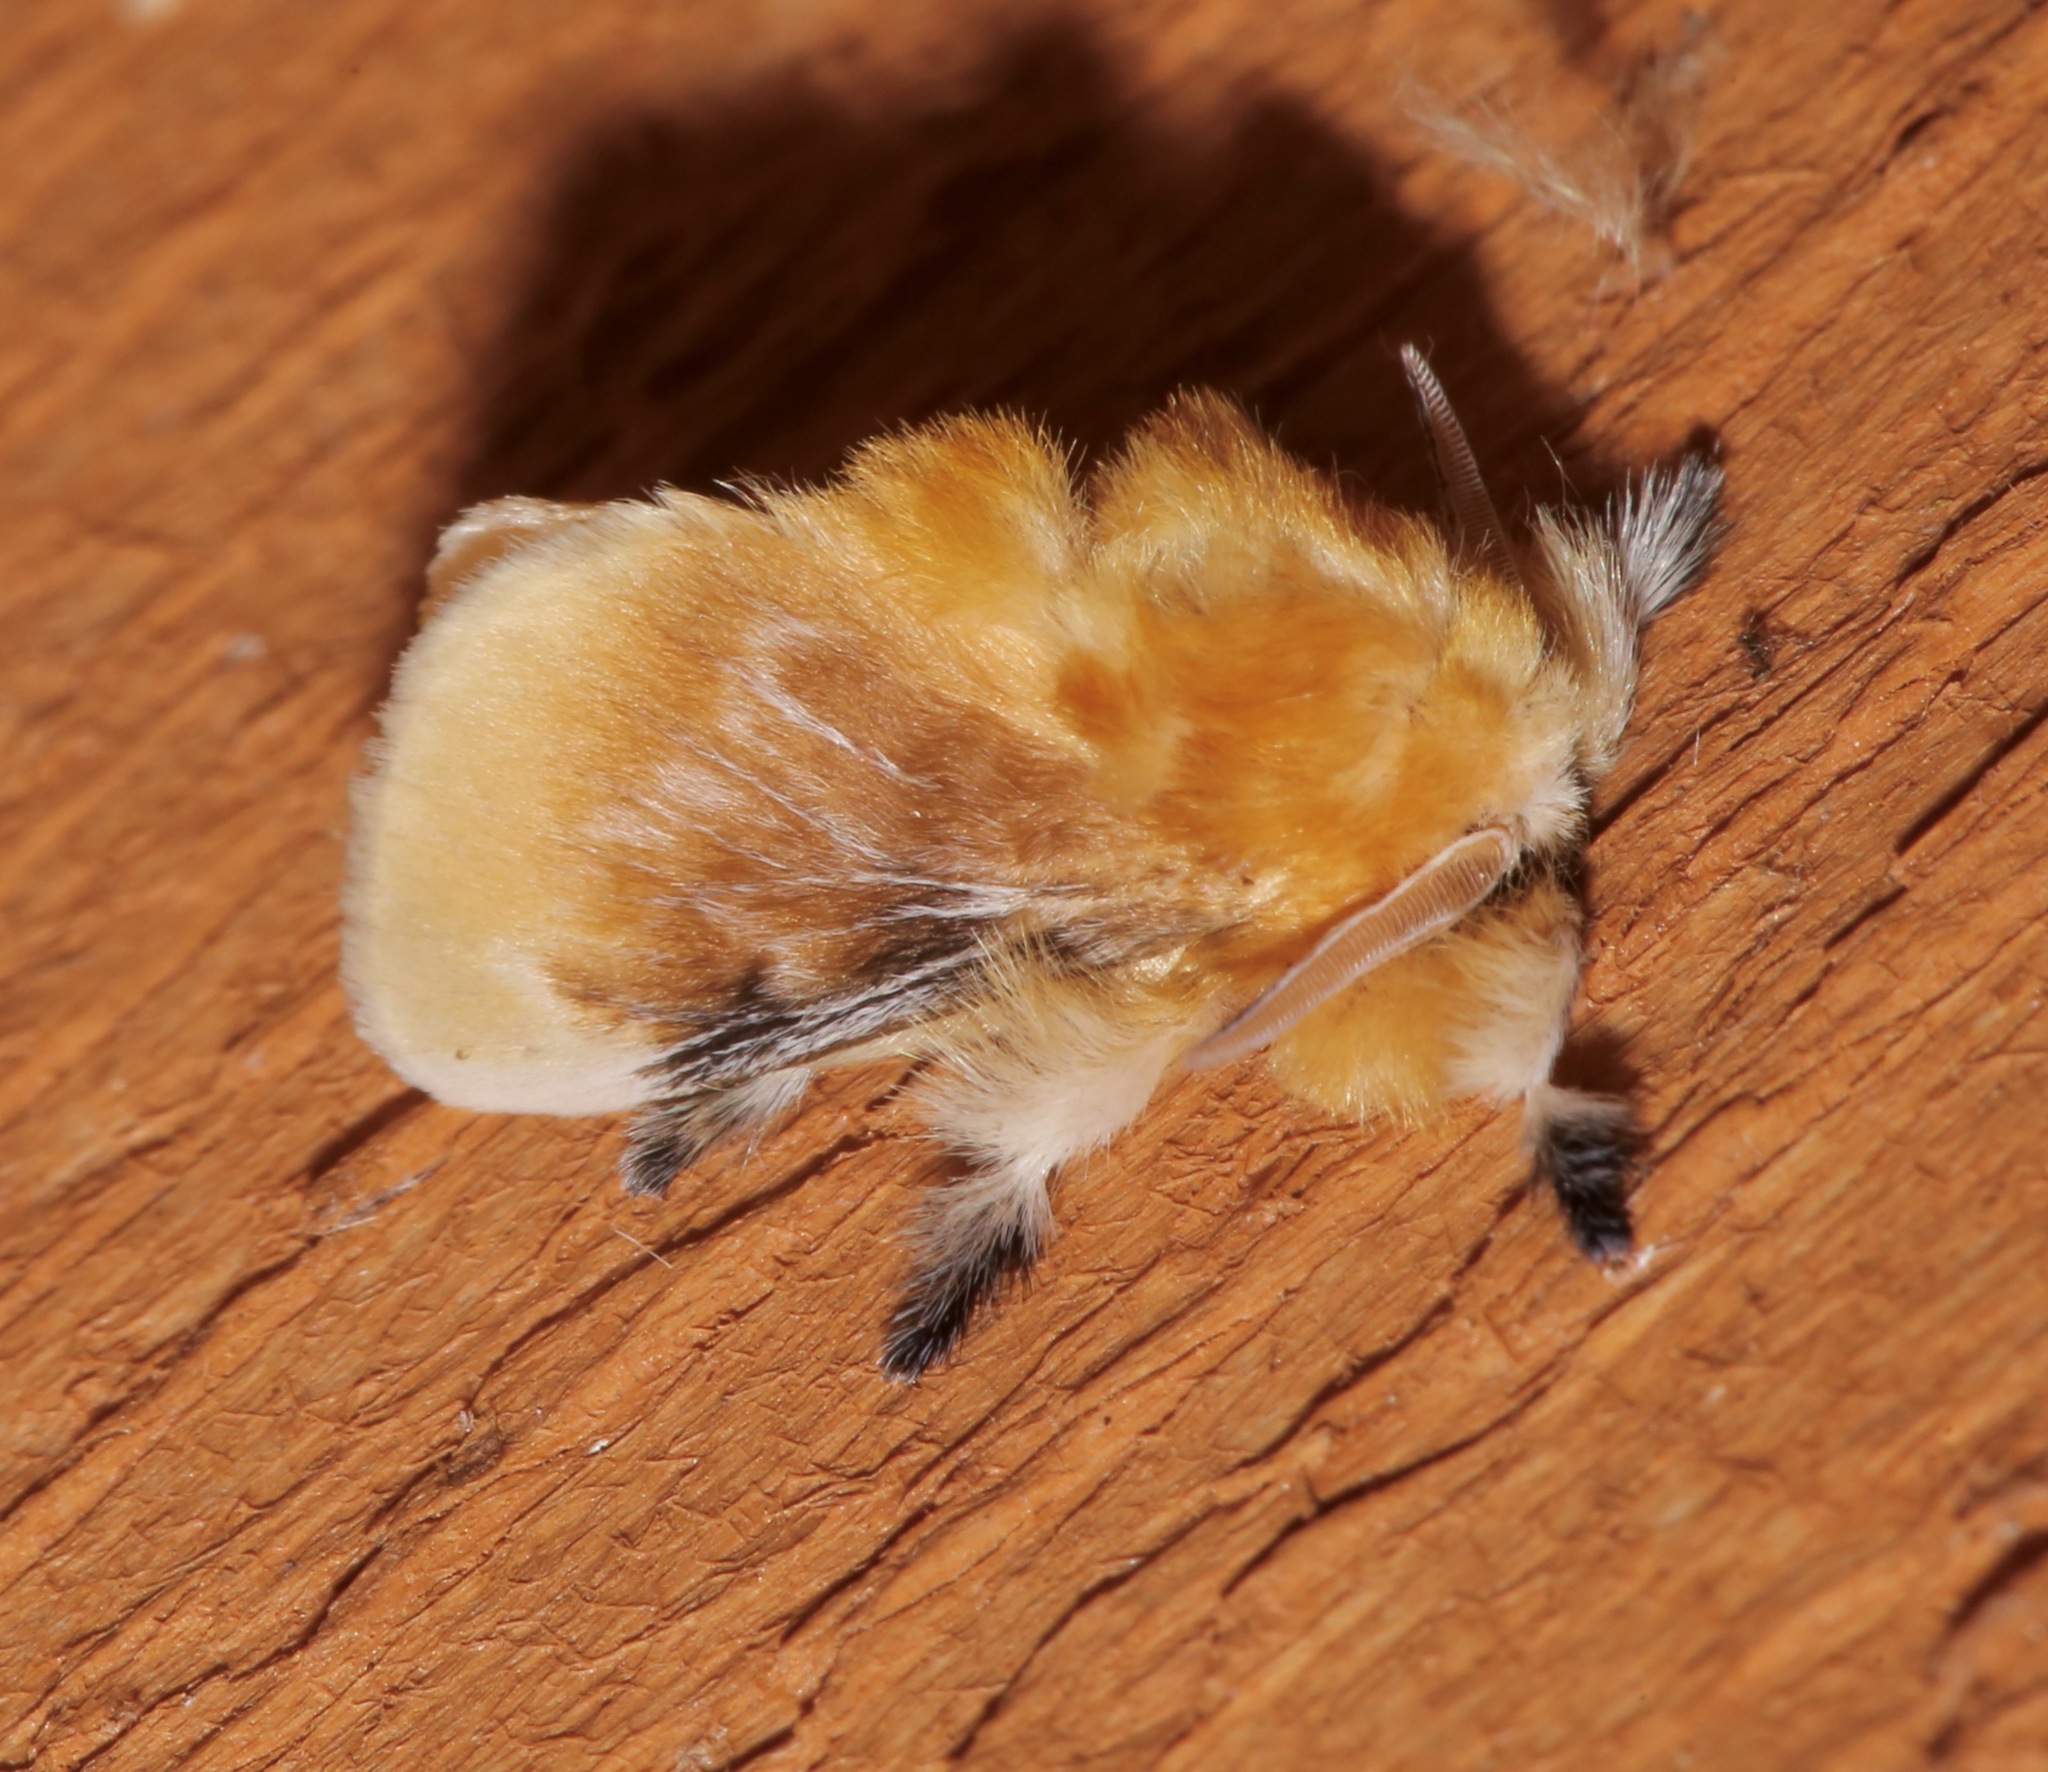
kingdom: Animalia
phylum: Arthropoda
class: Insecta
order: Lepidoptera
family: Megalopygidae
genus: Megalopyge
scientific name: Megalopyge opercularis
